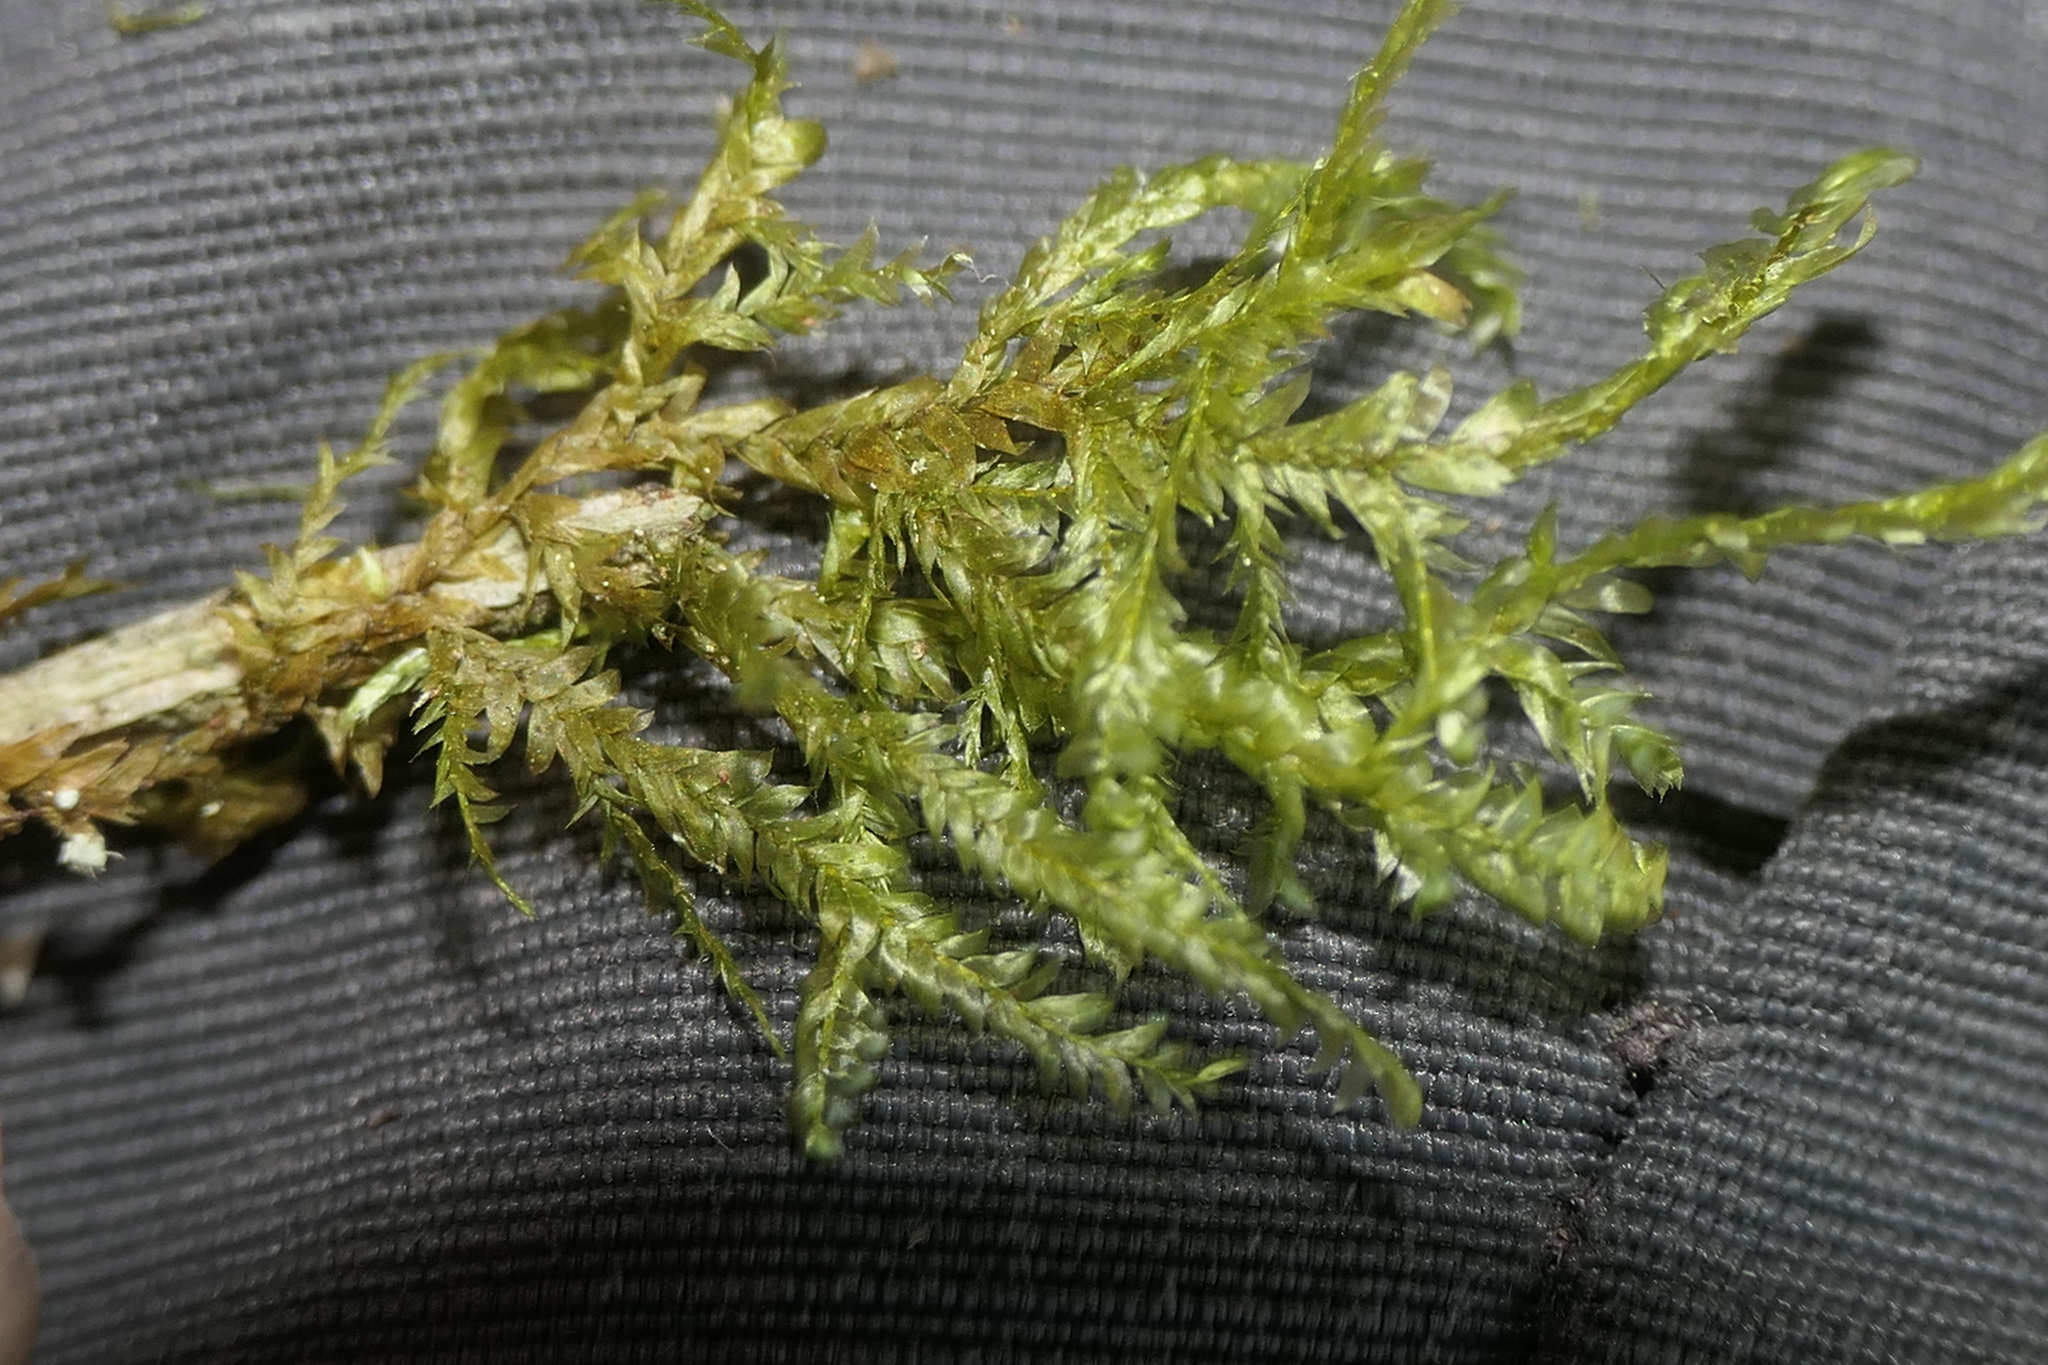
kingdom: Plantae
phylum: Bryophyta
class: Bryopsida
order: Hypnales
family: Neckeraceae
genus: Alleniella
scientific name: Alleniella complanata
